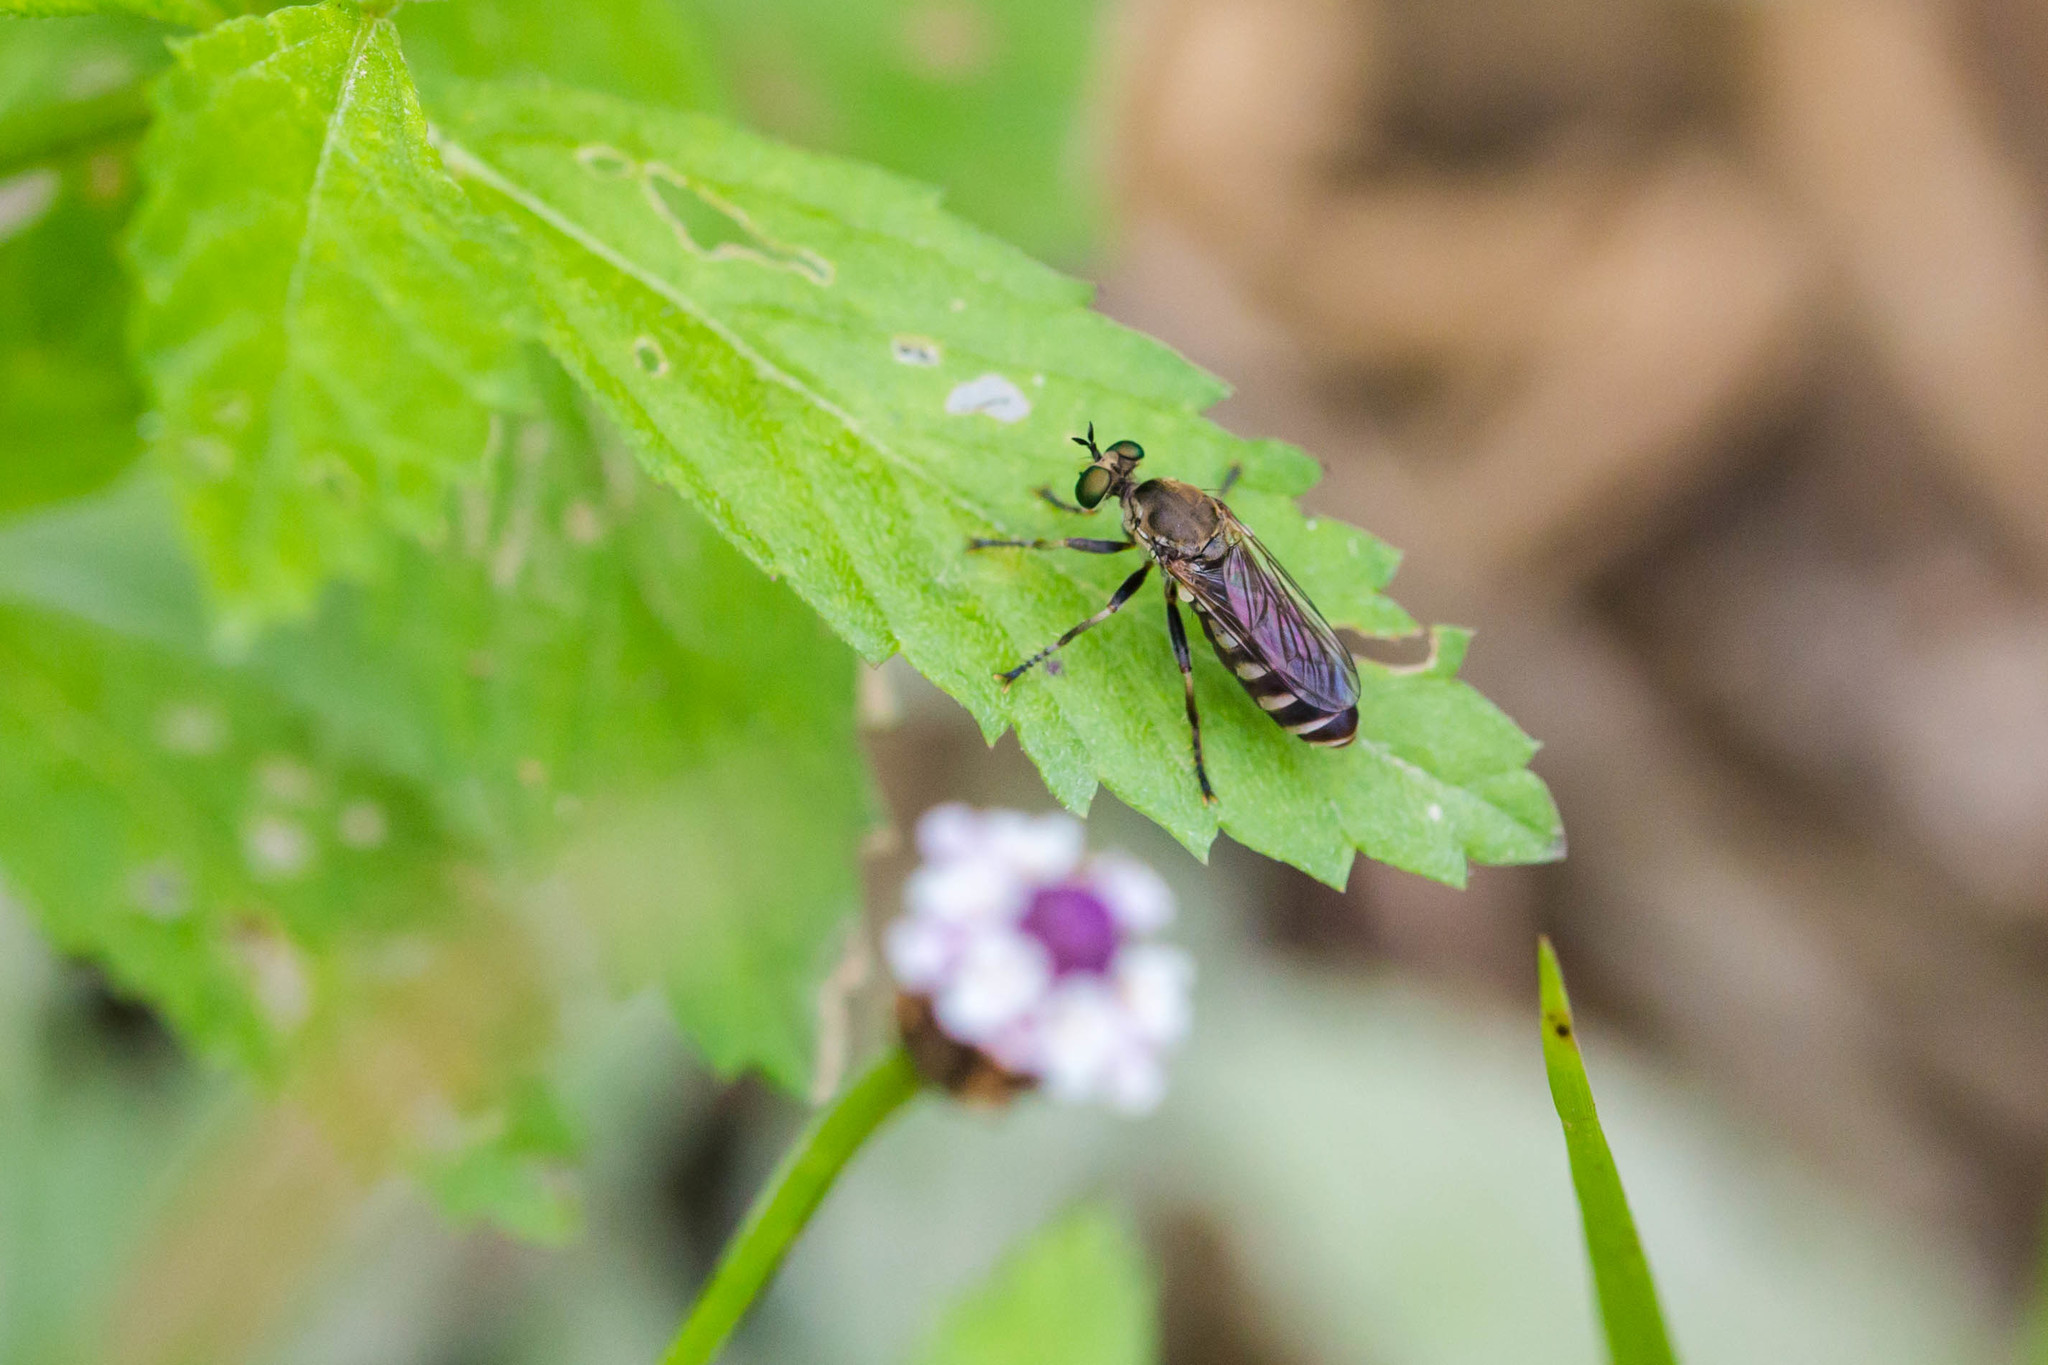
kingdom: Animalia
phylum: Arthropoda
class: Insecta
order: Diptera
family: Asilidae
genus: Psilocurus
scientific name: Psilocurus birdi
